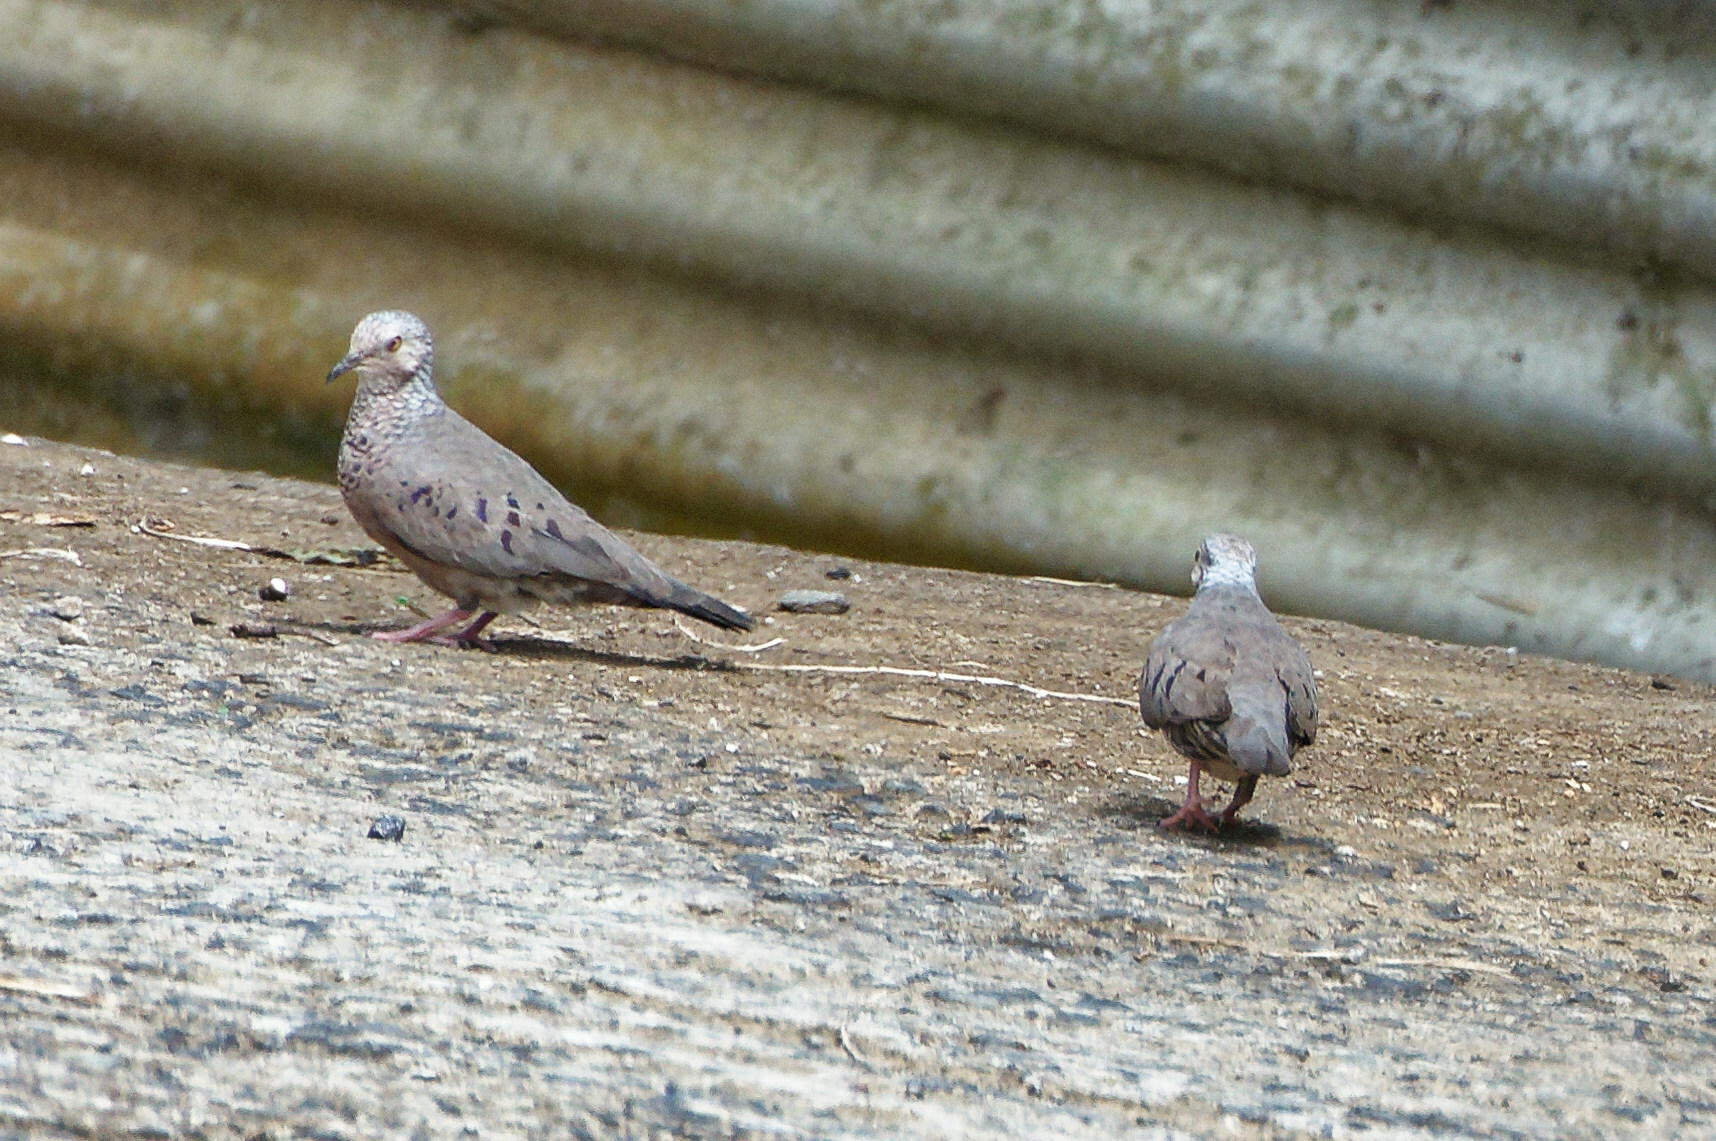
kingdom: Animalia
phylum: Chordata
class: Aves
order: Columbiformes
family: Columbidae
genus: Columbina
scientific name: Columbina passerina
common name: Common ground-dove
